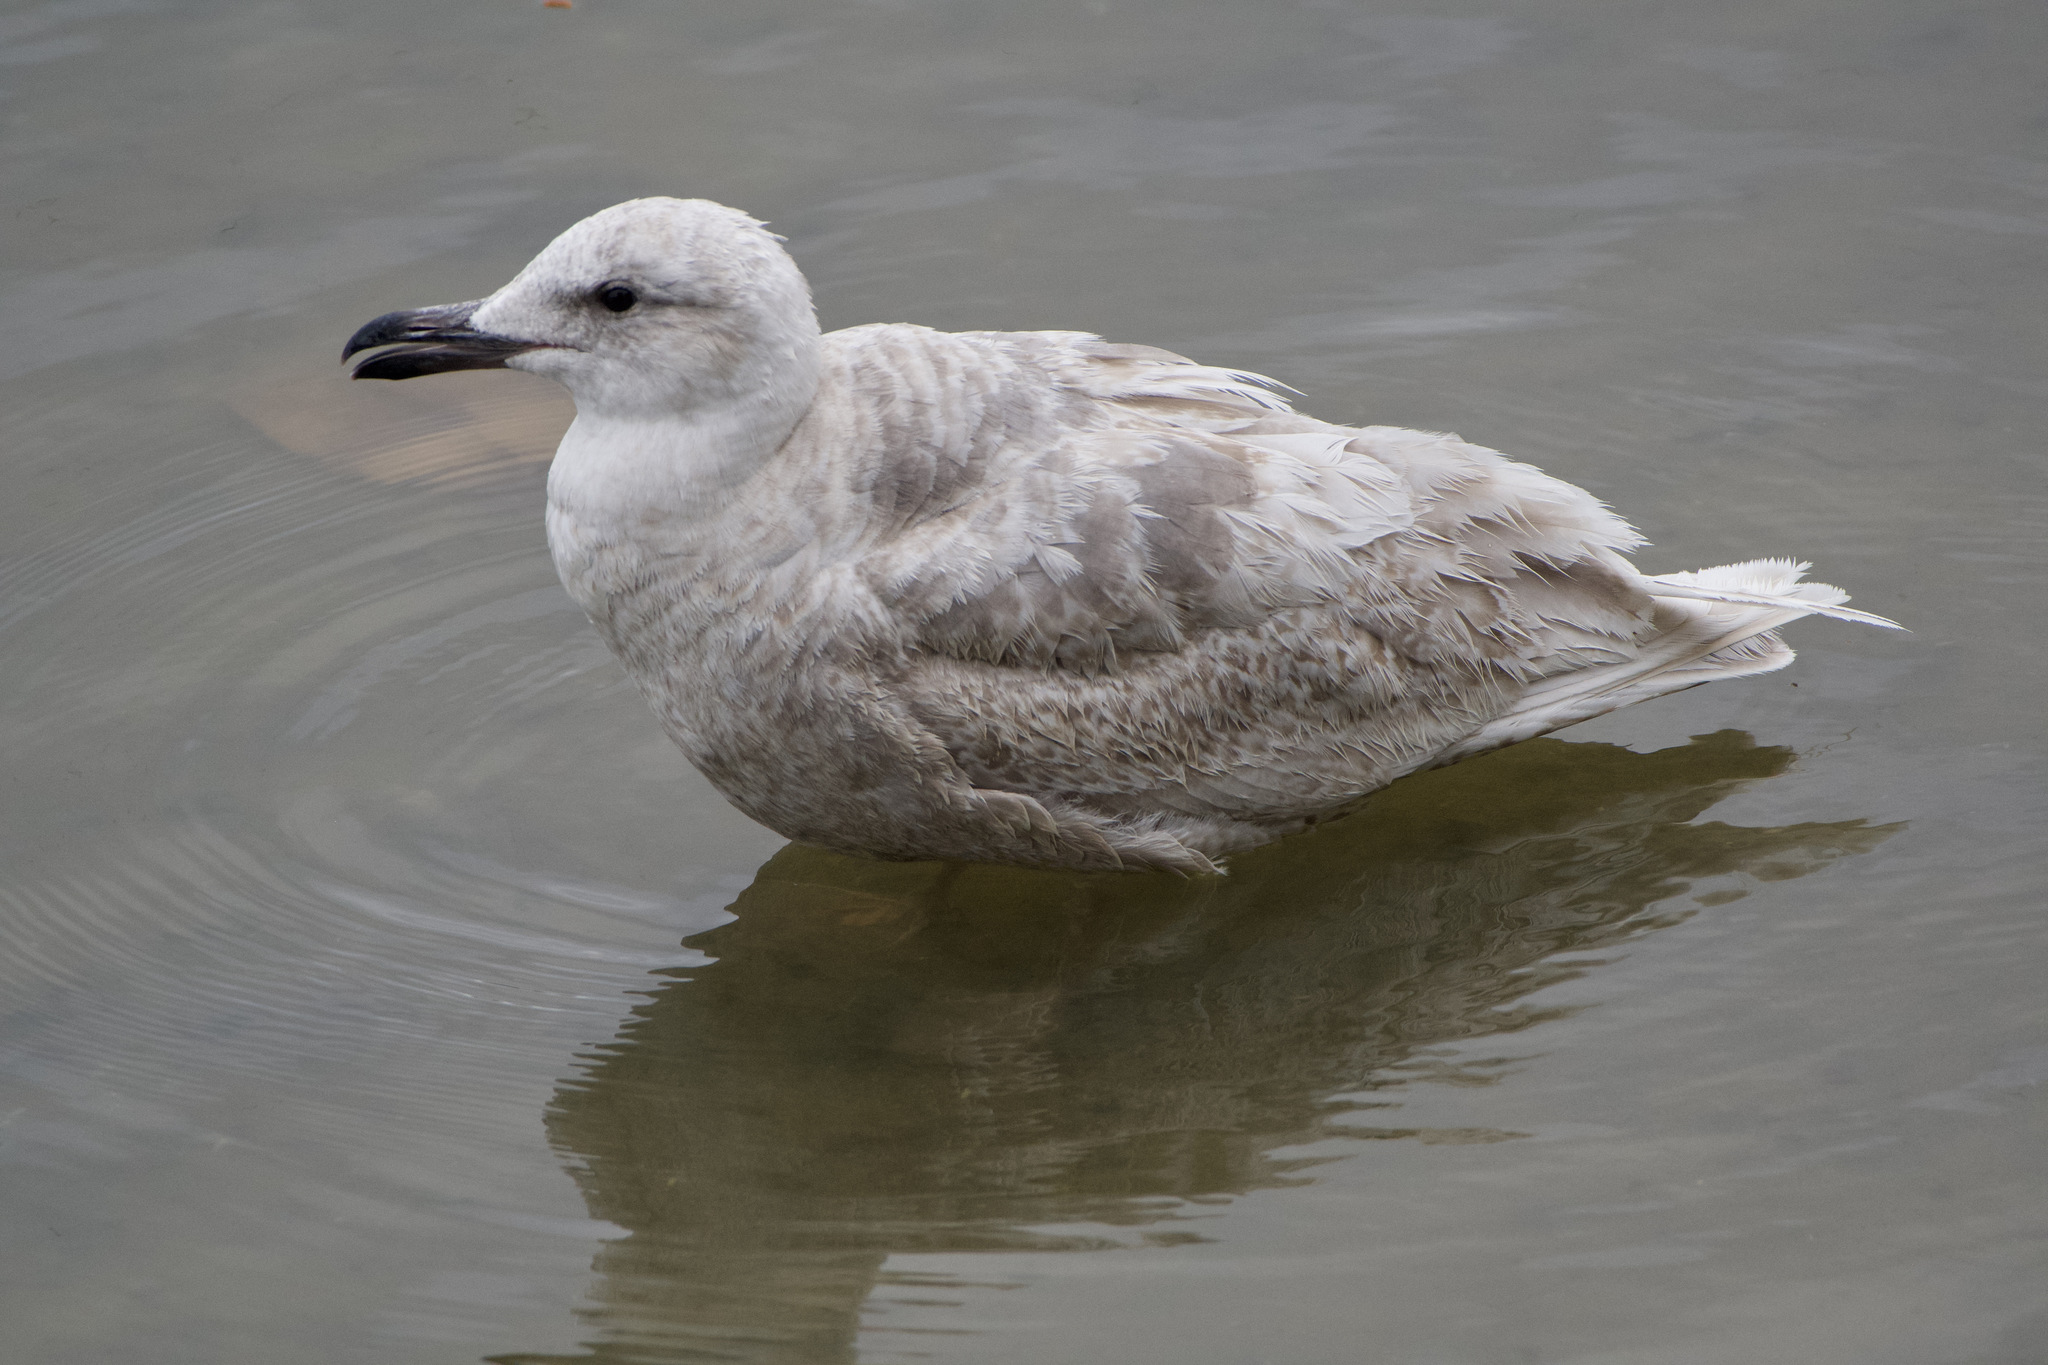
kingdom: Animalia
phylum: Chordata
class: Aves
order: Charadriiformes
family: Laridae
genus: Larus
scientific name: Larus glaucescens
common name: Glaucous-winged gull
